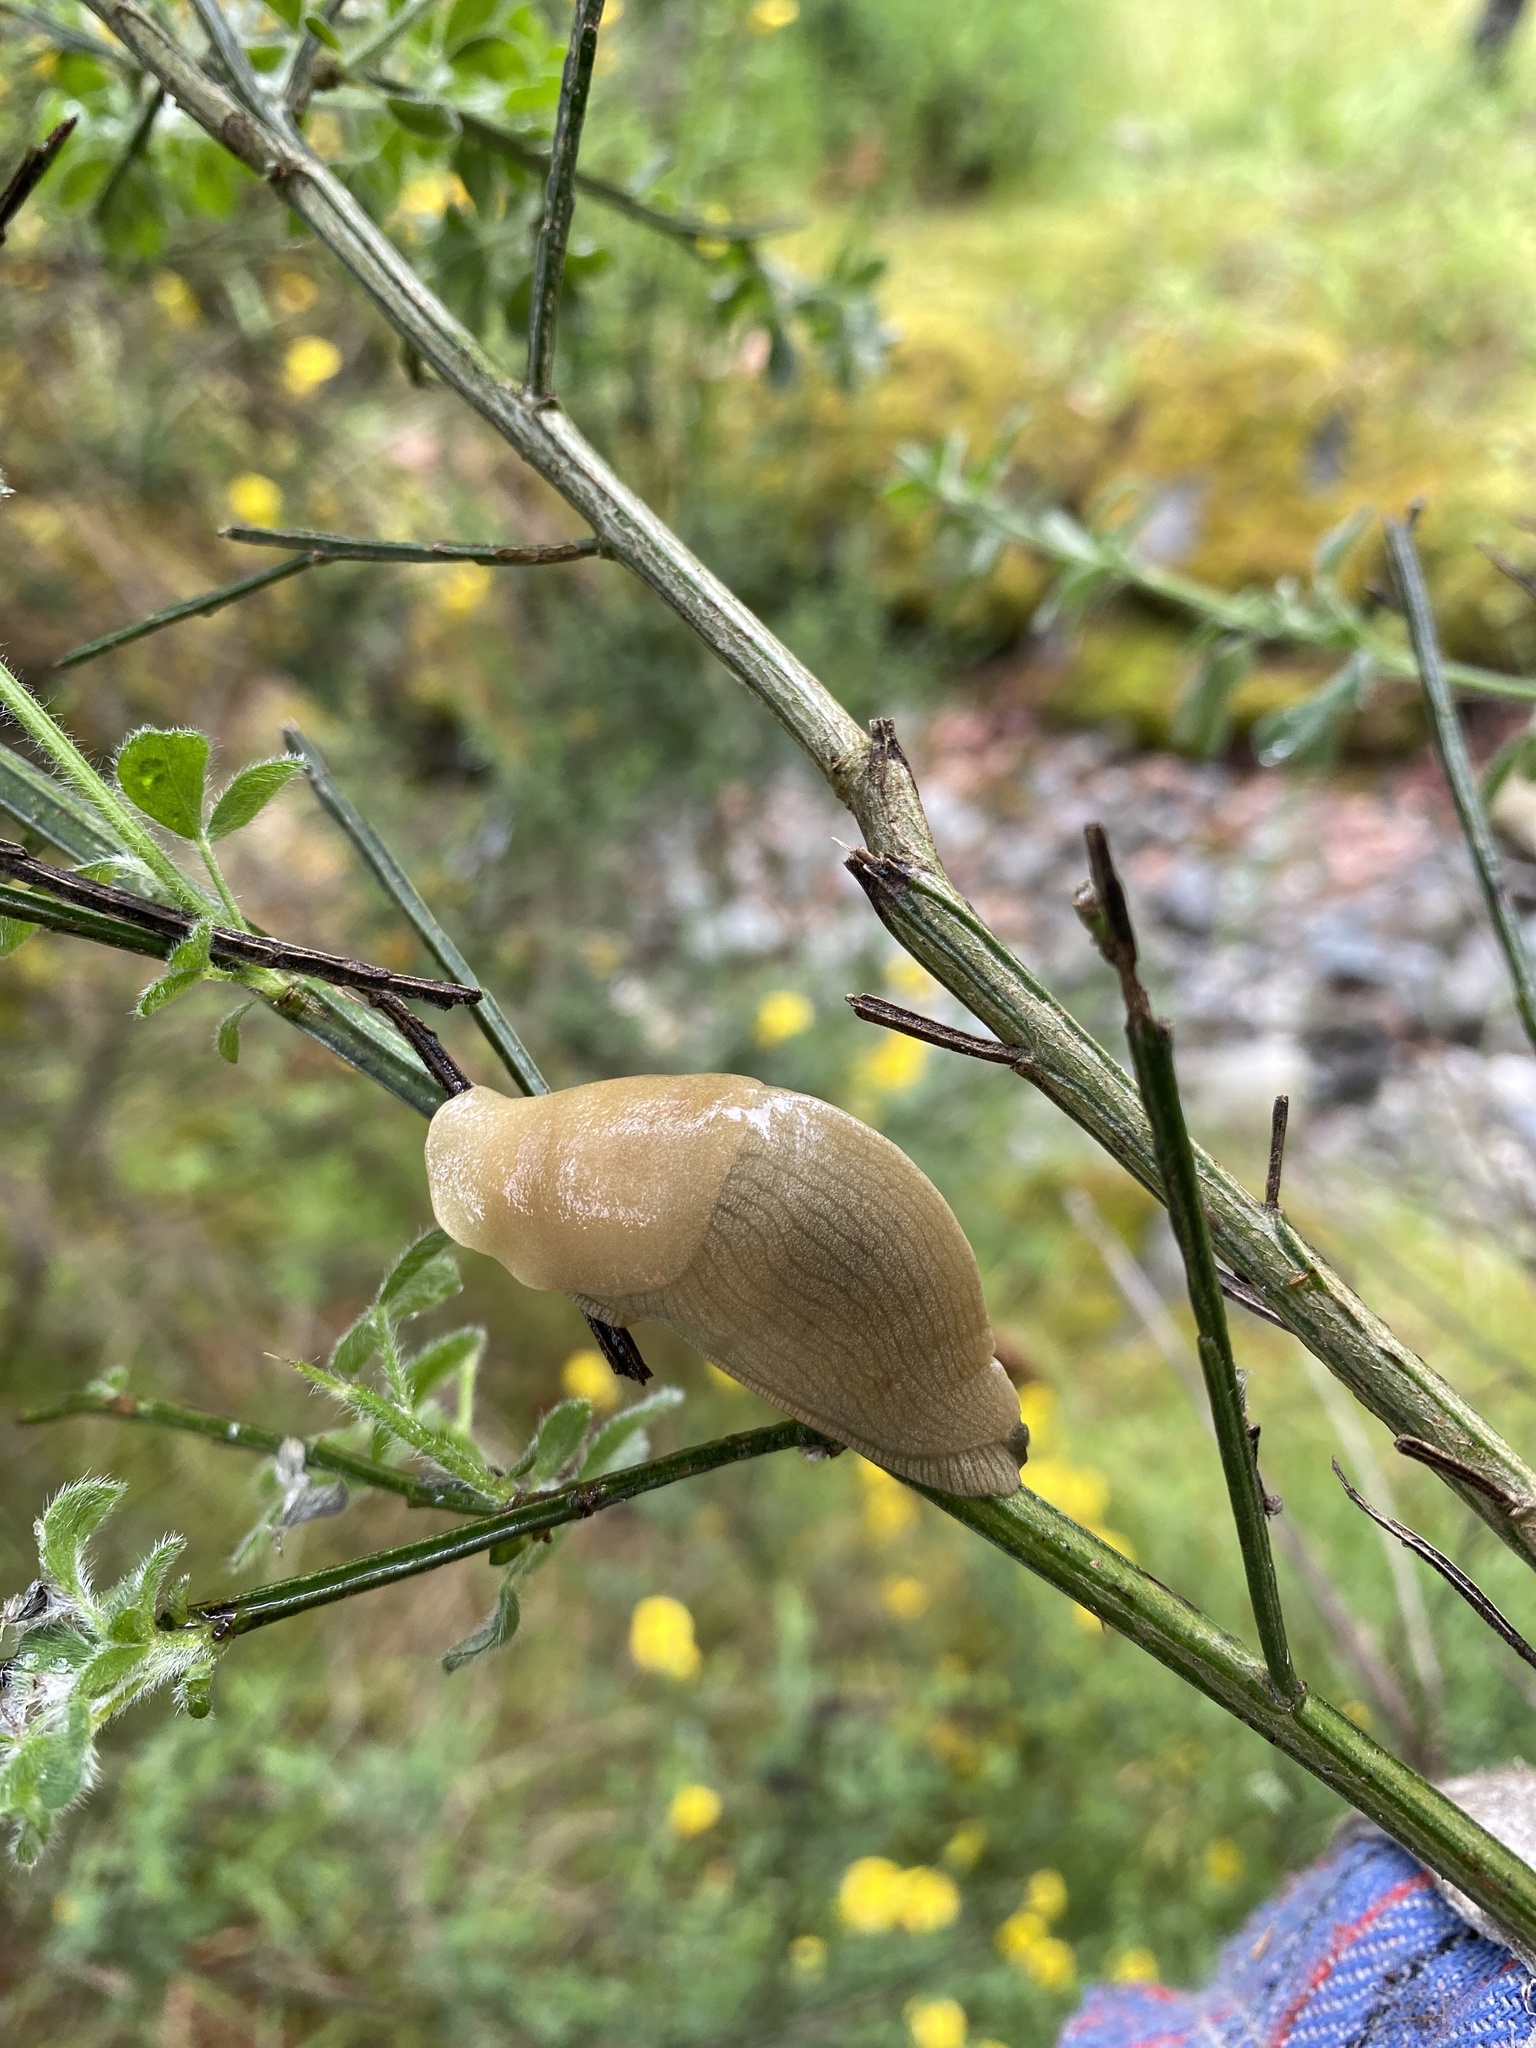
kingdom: Animalia
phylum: Mollusca
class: Gastropoda
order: Stylommatophora
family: Ariolimacidae
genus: Ariolimax
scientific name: Ariolimax columbianus
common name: Pacific banana slug
